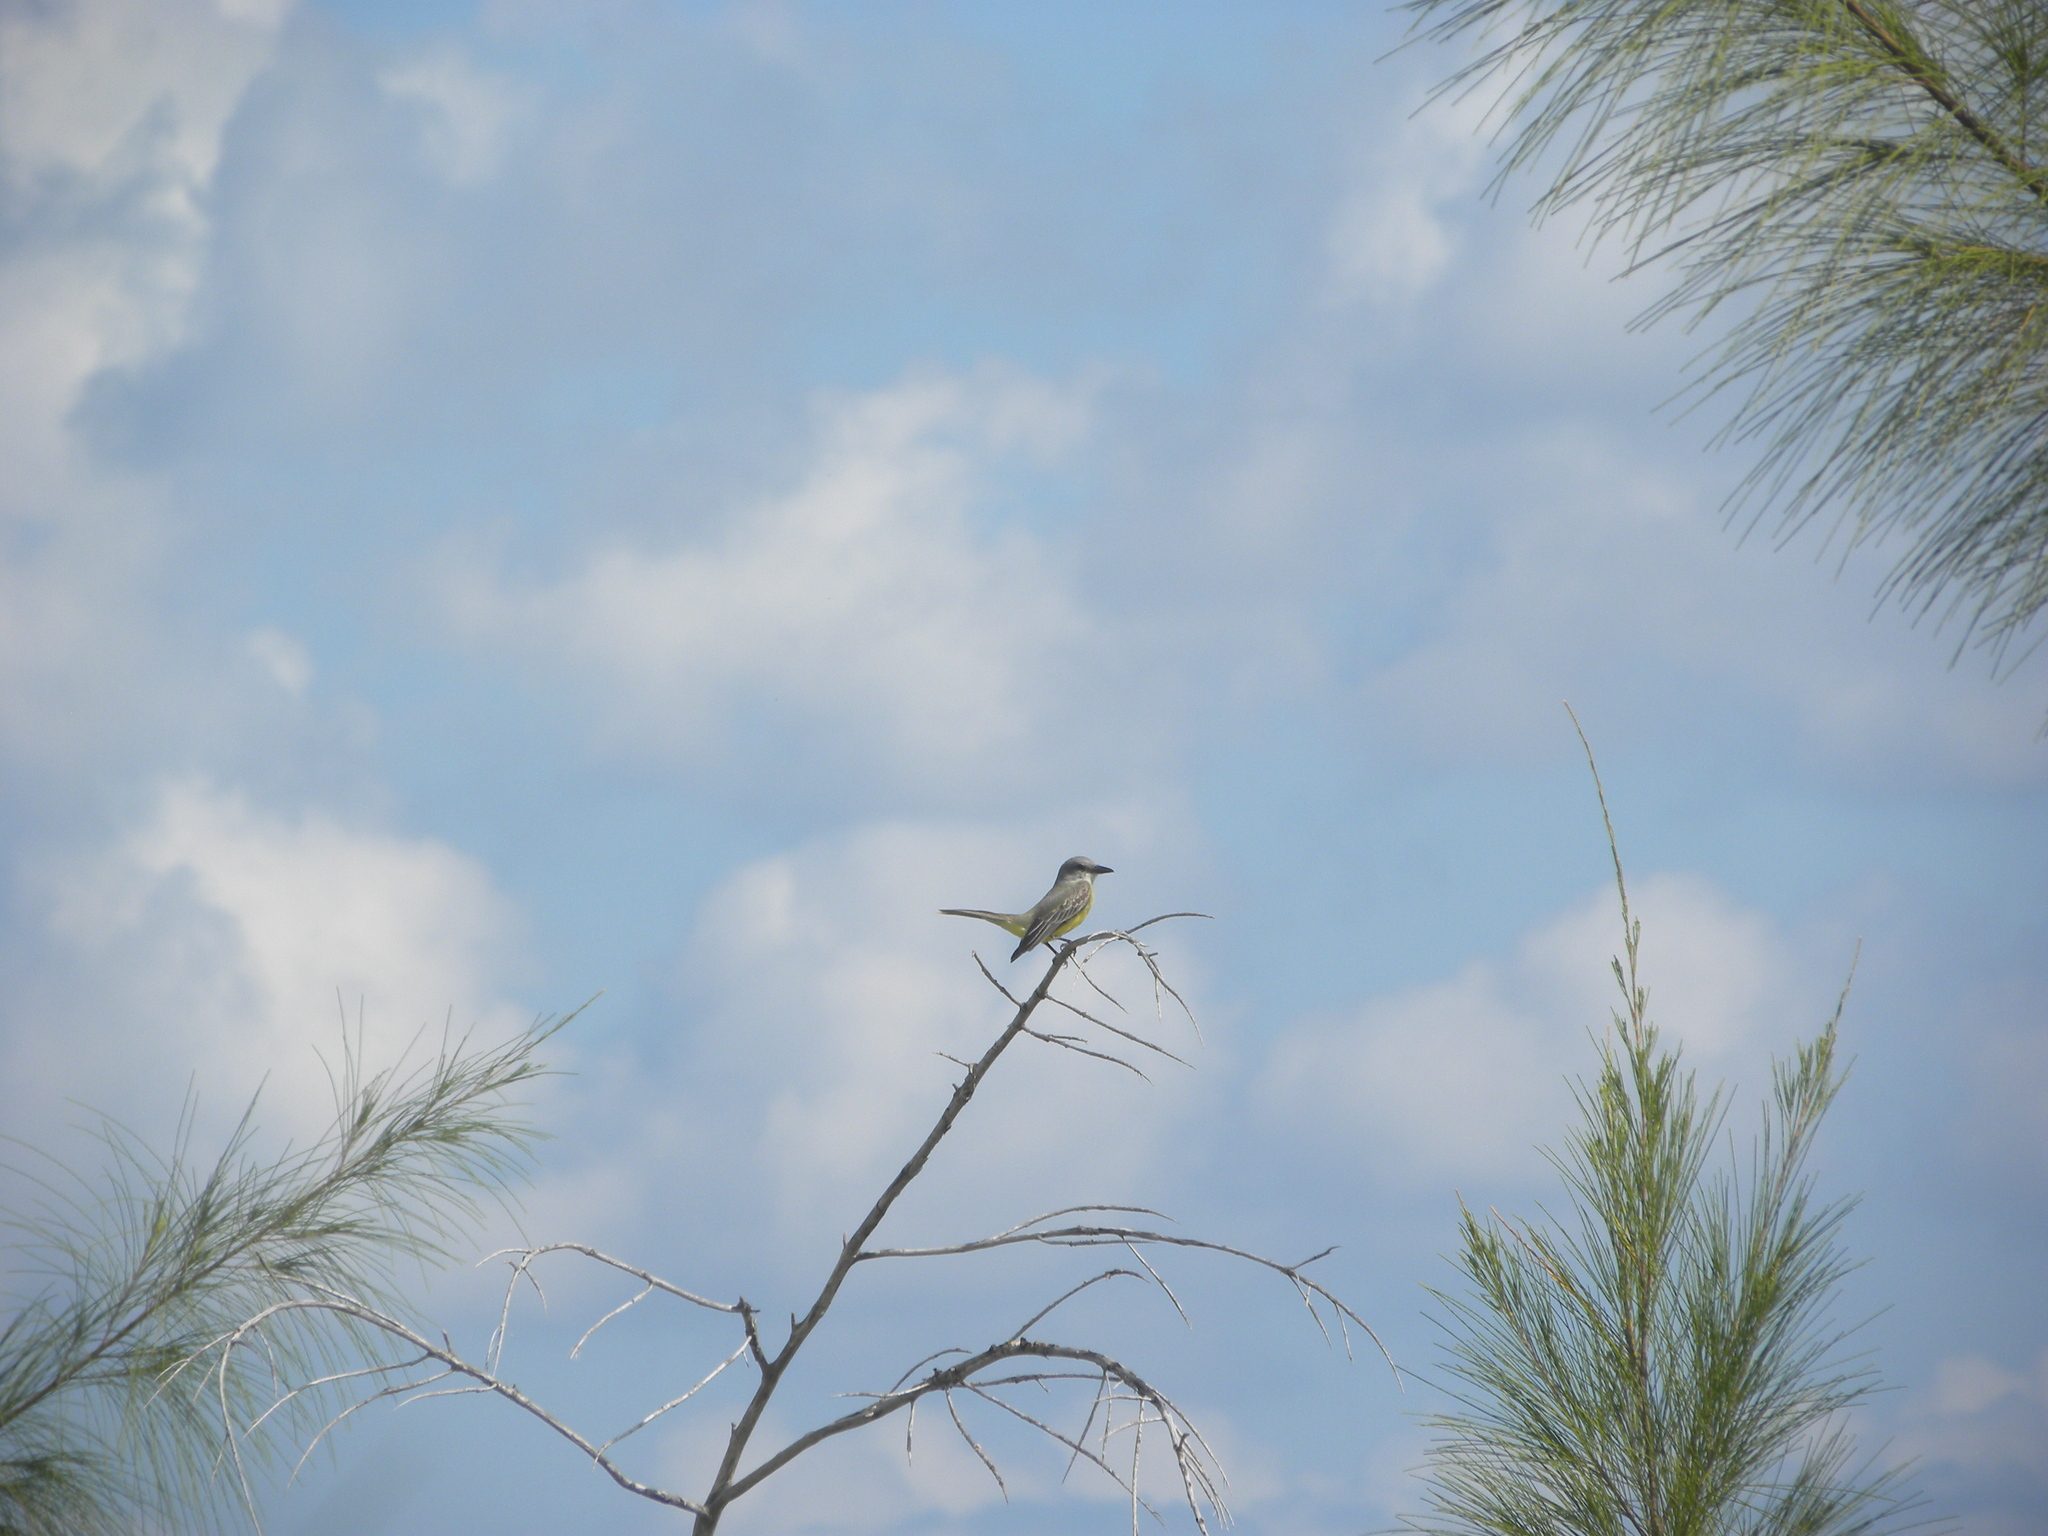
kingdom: Animalia
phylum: Chordata
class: Aves
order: Passeriformes
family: Tyrannidae
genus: Tyrannus
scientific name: Tyrannus melancholicus
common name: Tropical kingbird
